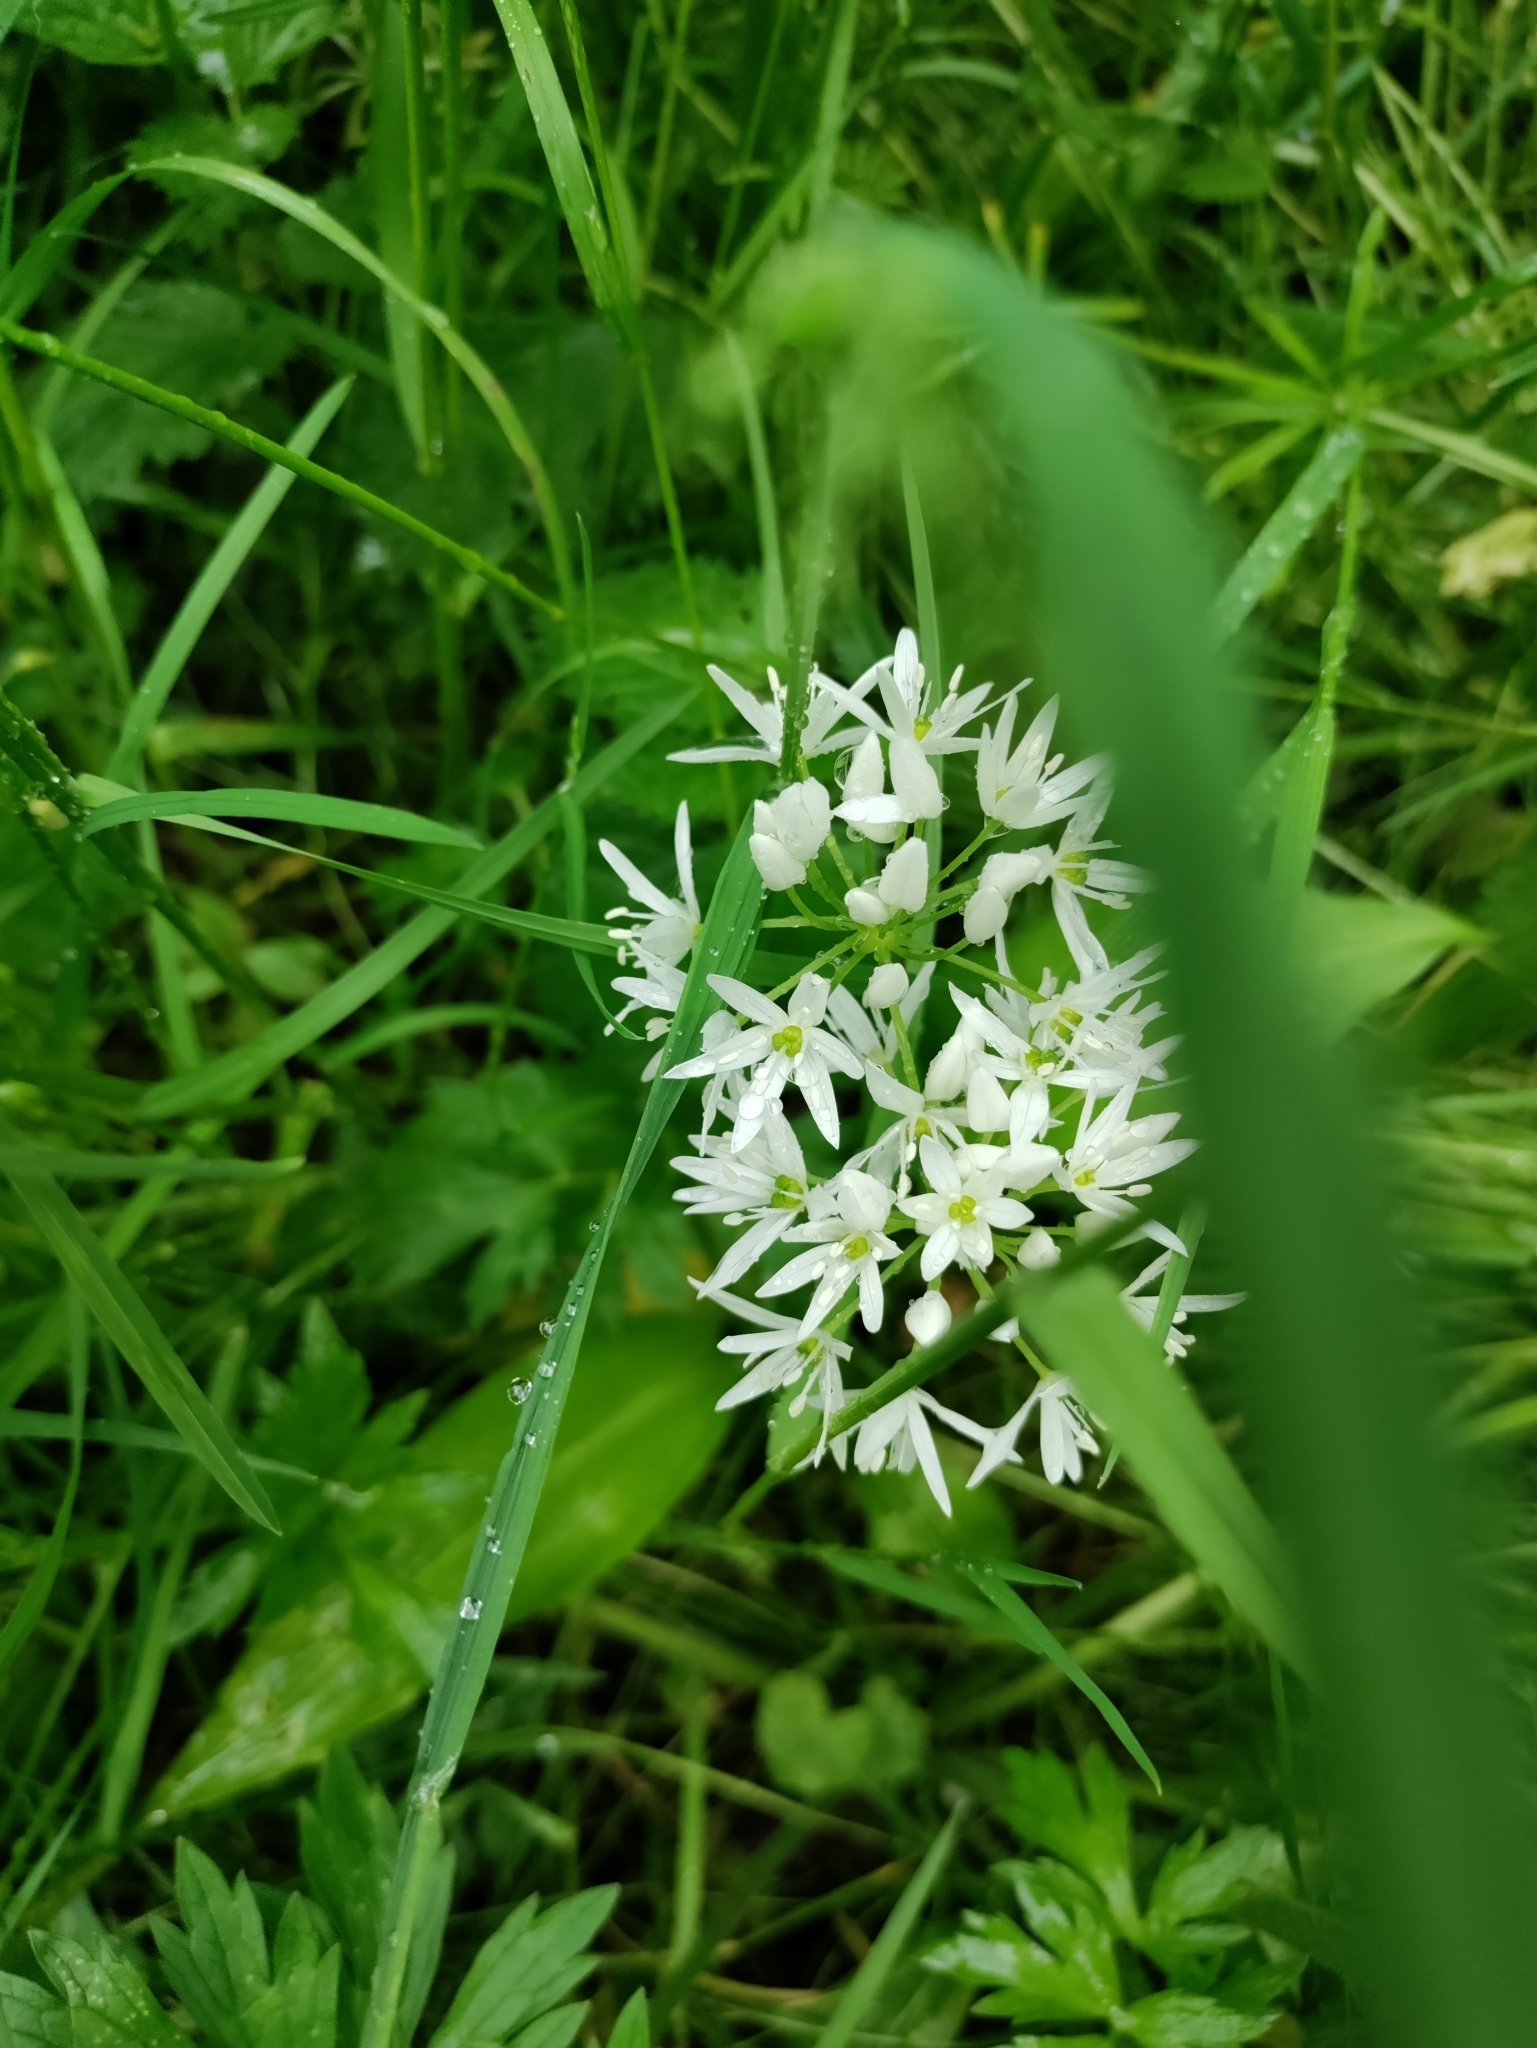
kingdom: Plantae
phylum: Tracheophyta
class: Liliopsida
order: Asparagales
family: Amaryllidaceae
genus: Allium
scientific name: Allium ursinum
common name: Ramsons
